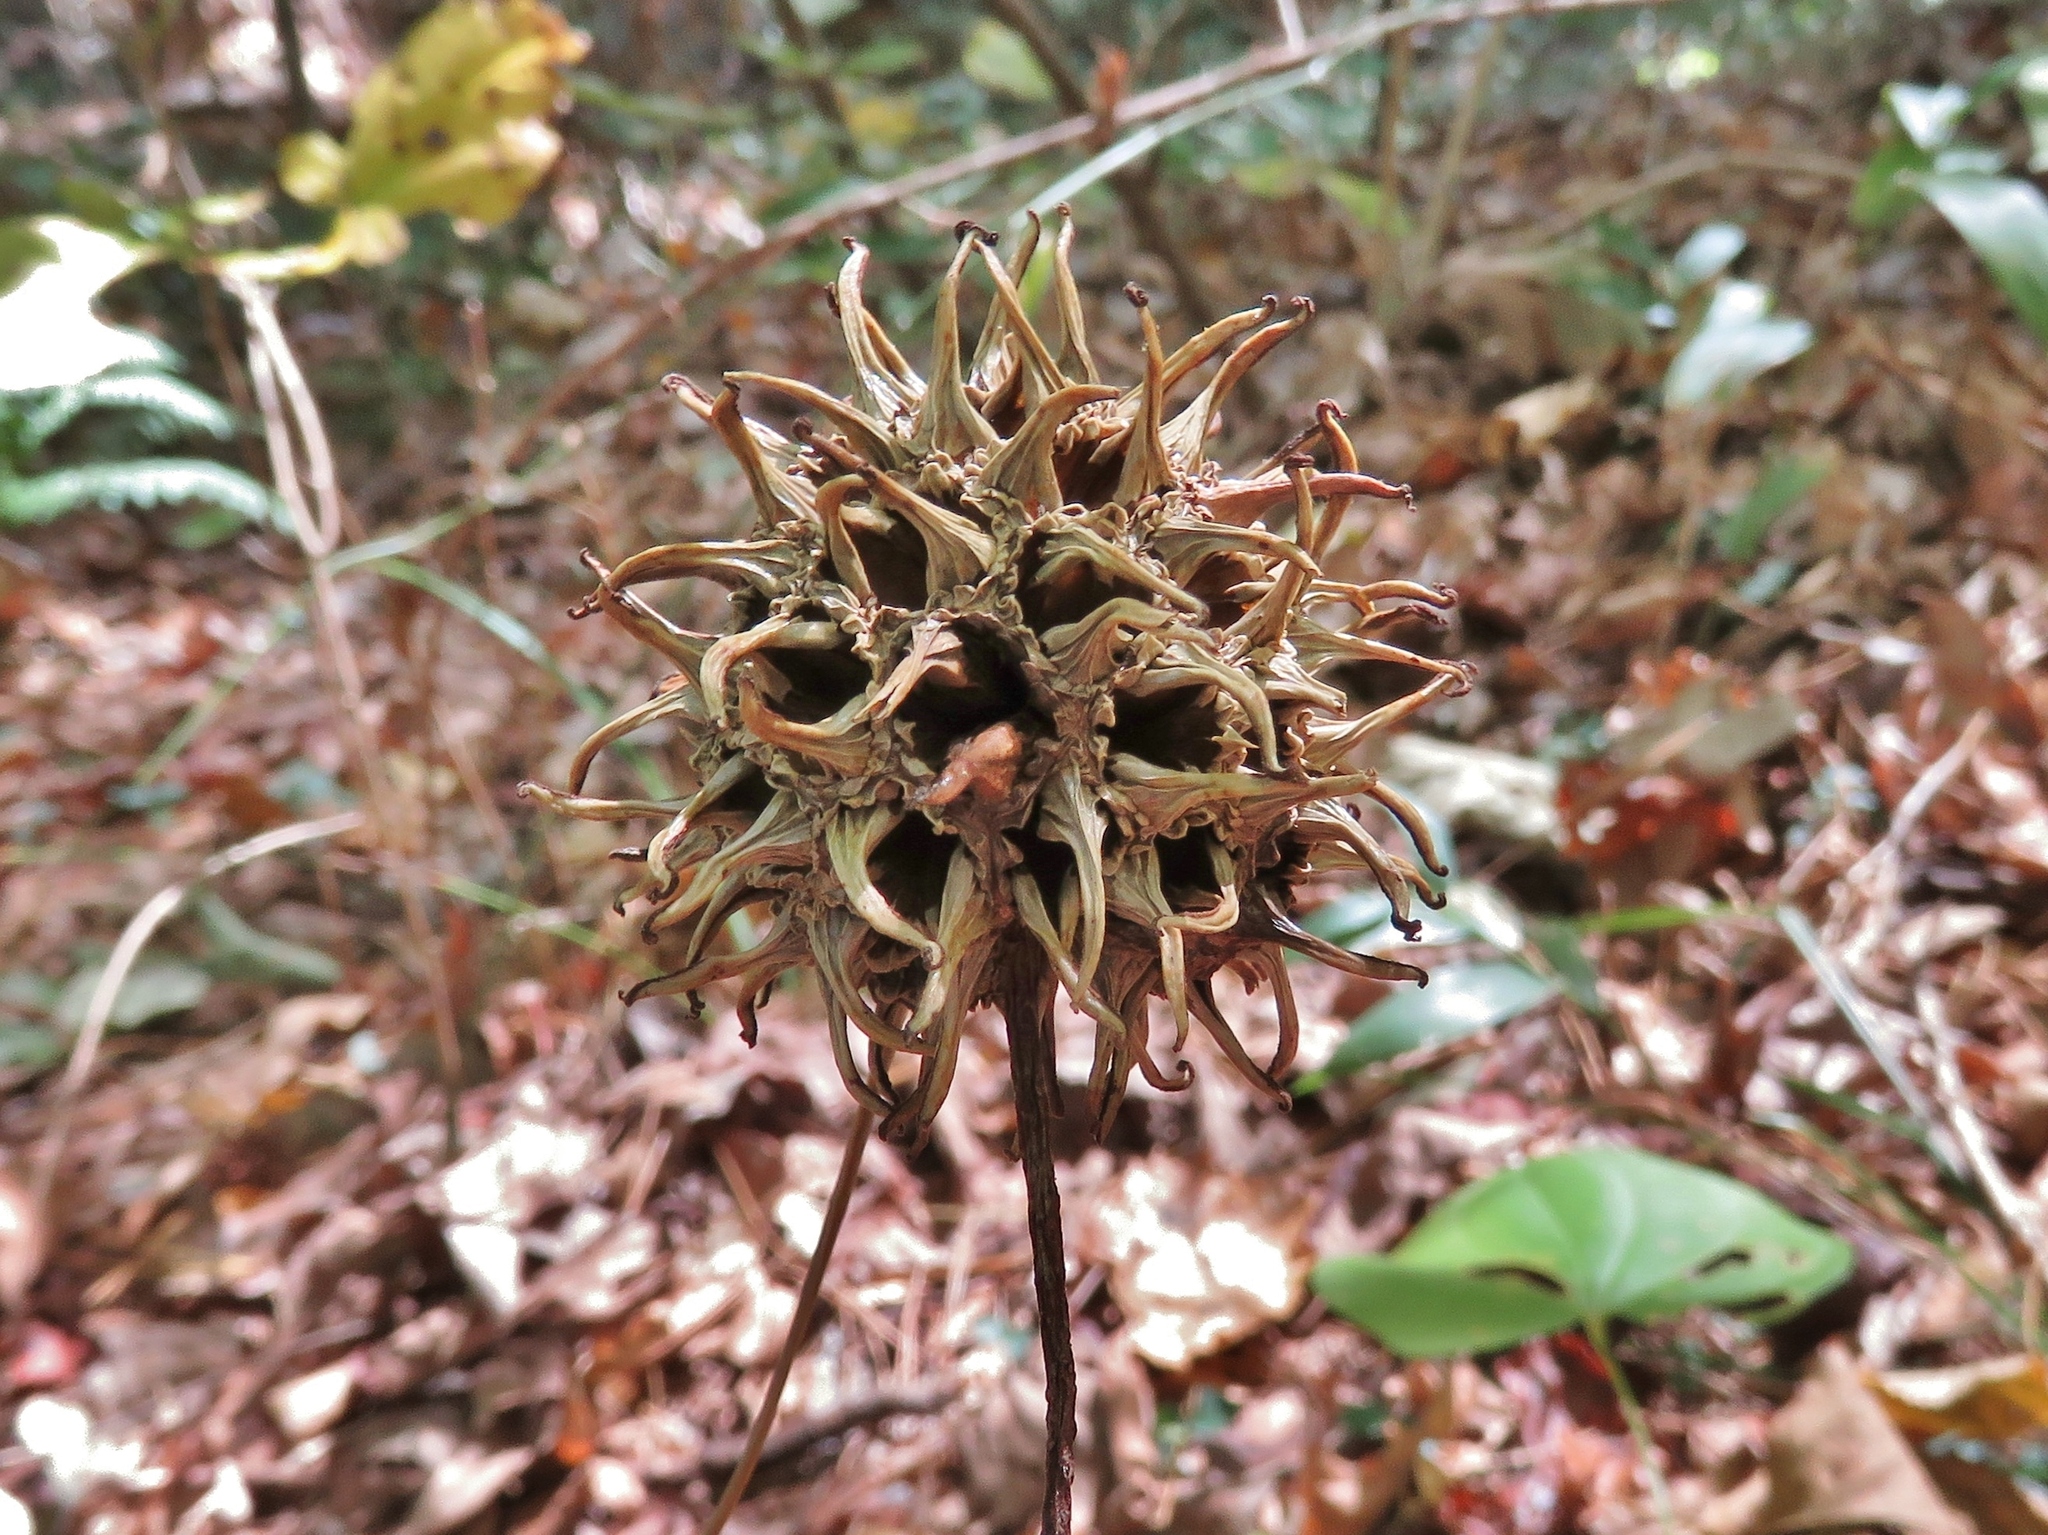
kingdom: Plantae
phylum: Tracheophyta
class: Magnoliopsida
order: Saxifragales
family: Altingiaceae
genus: Liquidambar
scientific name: Liquidambar styraciflua
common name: Sweet gum
